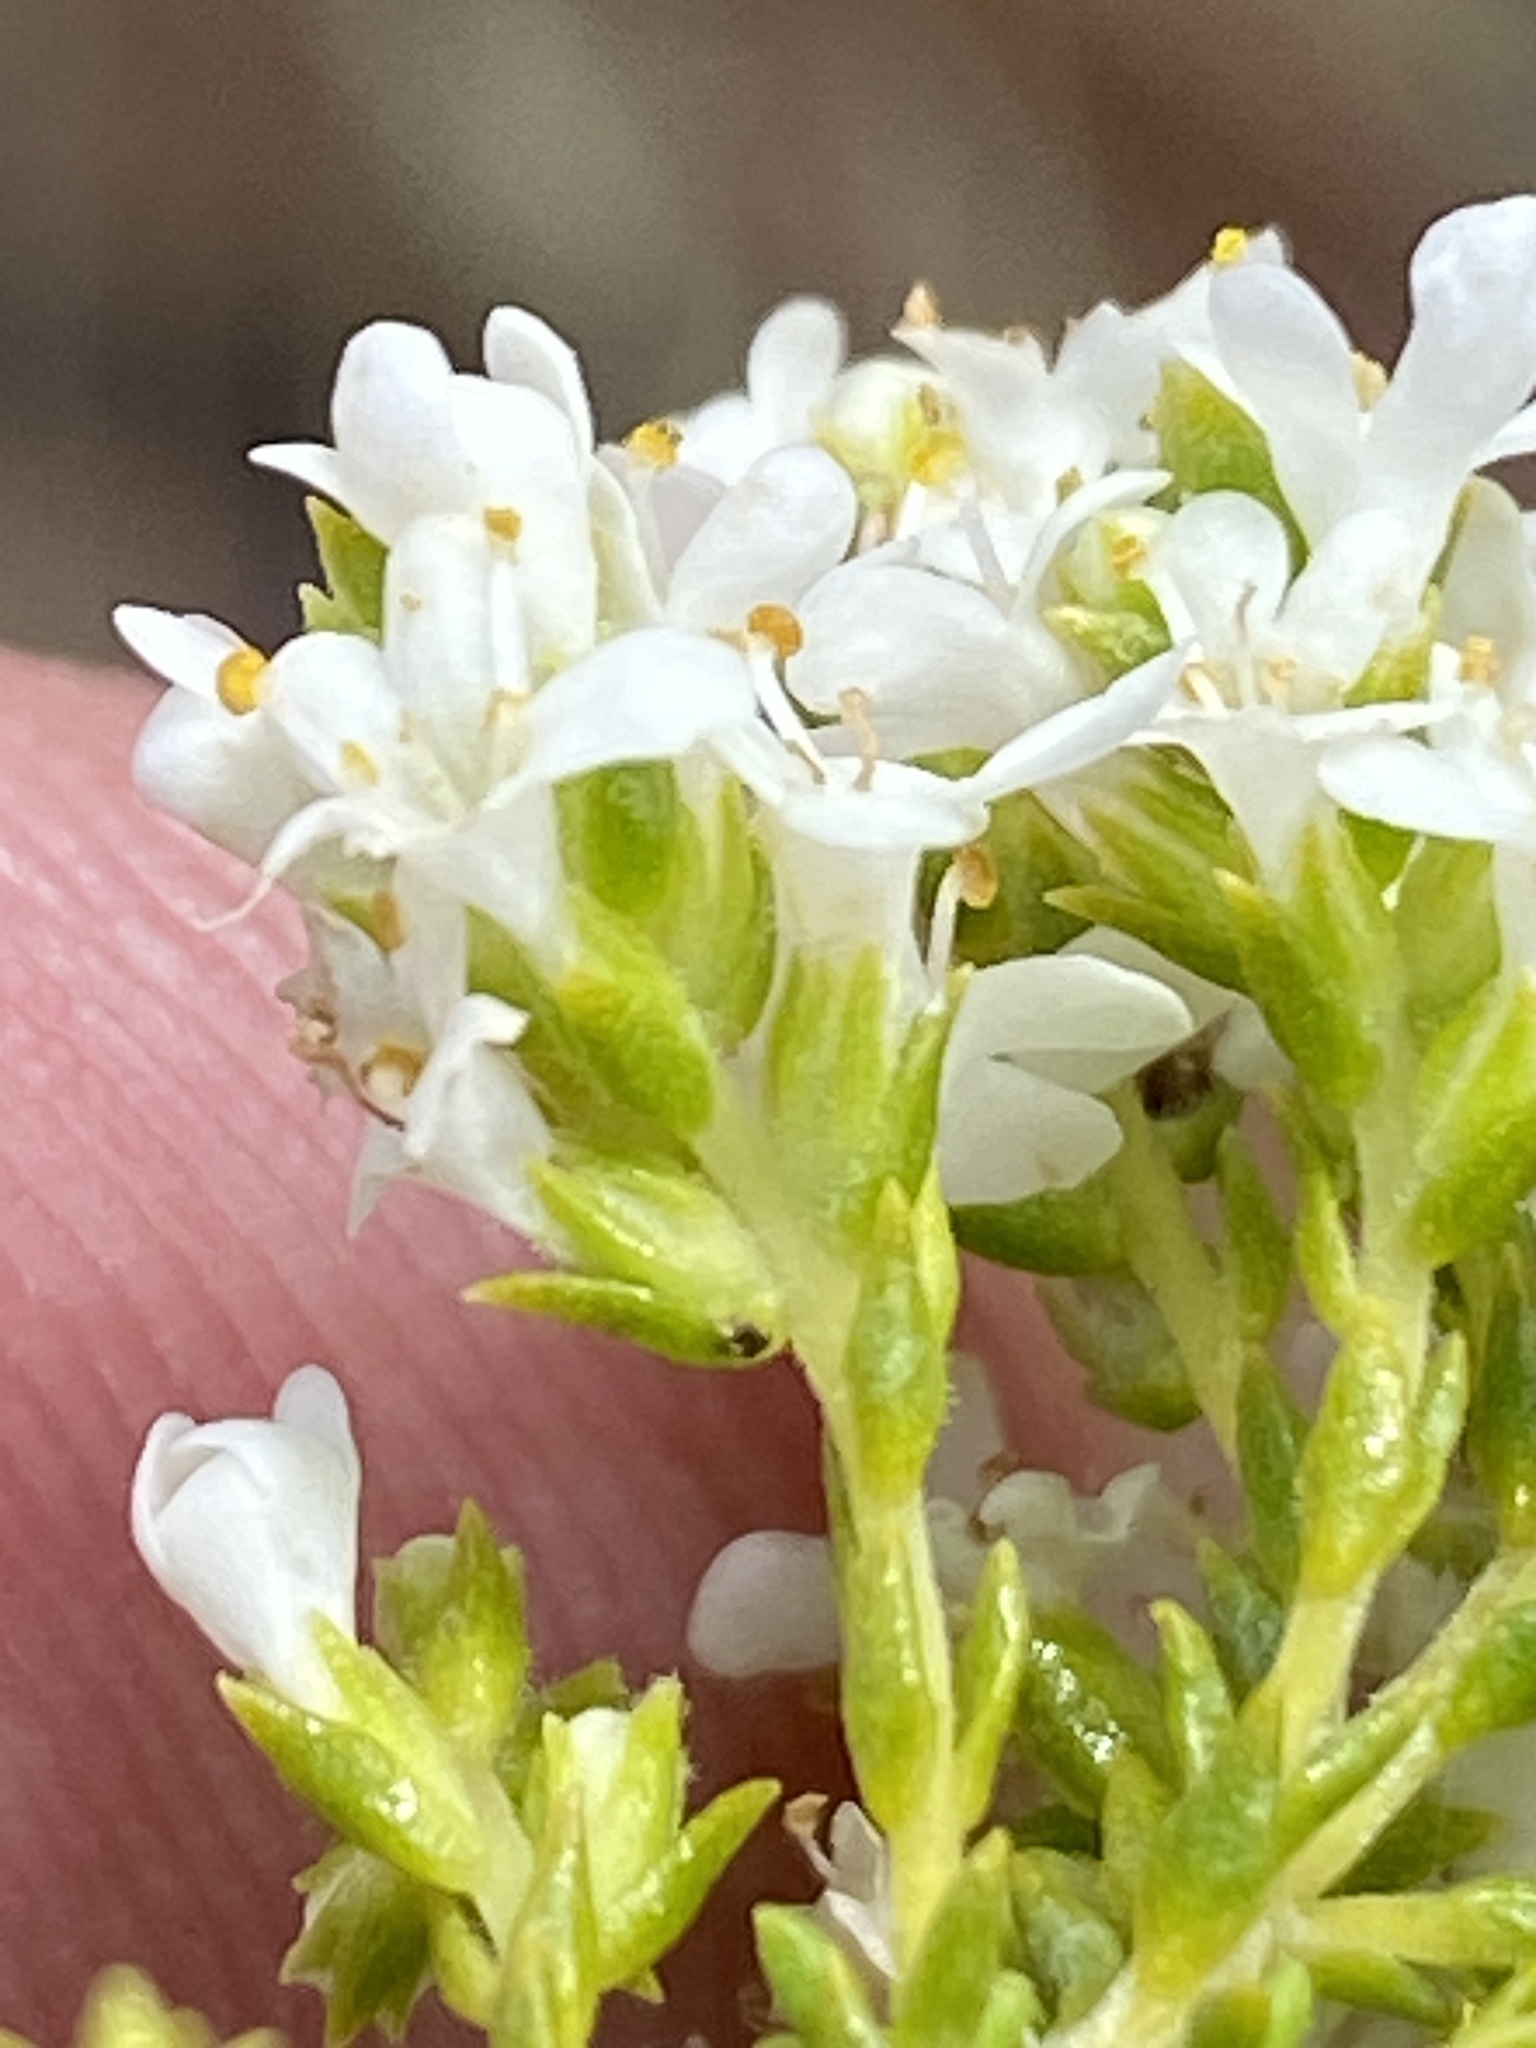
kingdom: Plantae
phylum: Tracheophyta
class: Magnoliopsida
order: Lamiales
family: Scrophulariaceae
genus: Selago
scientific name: Selago myriophylla
